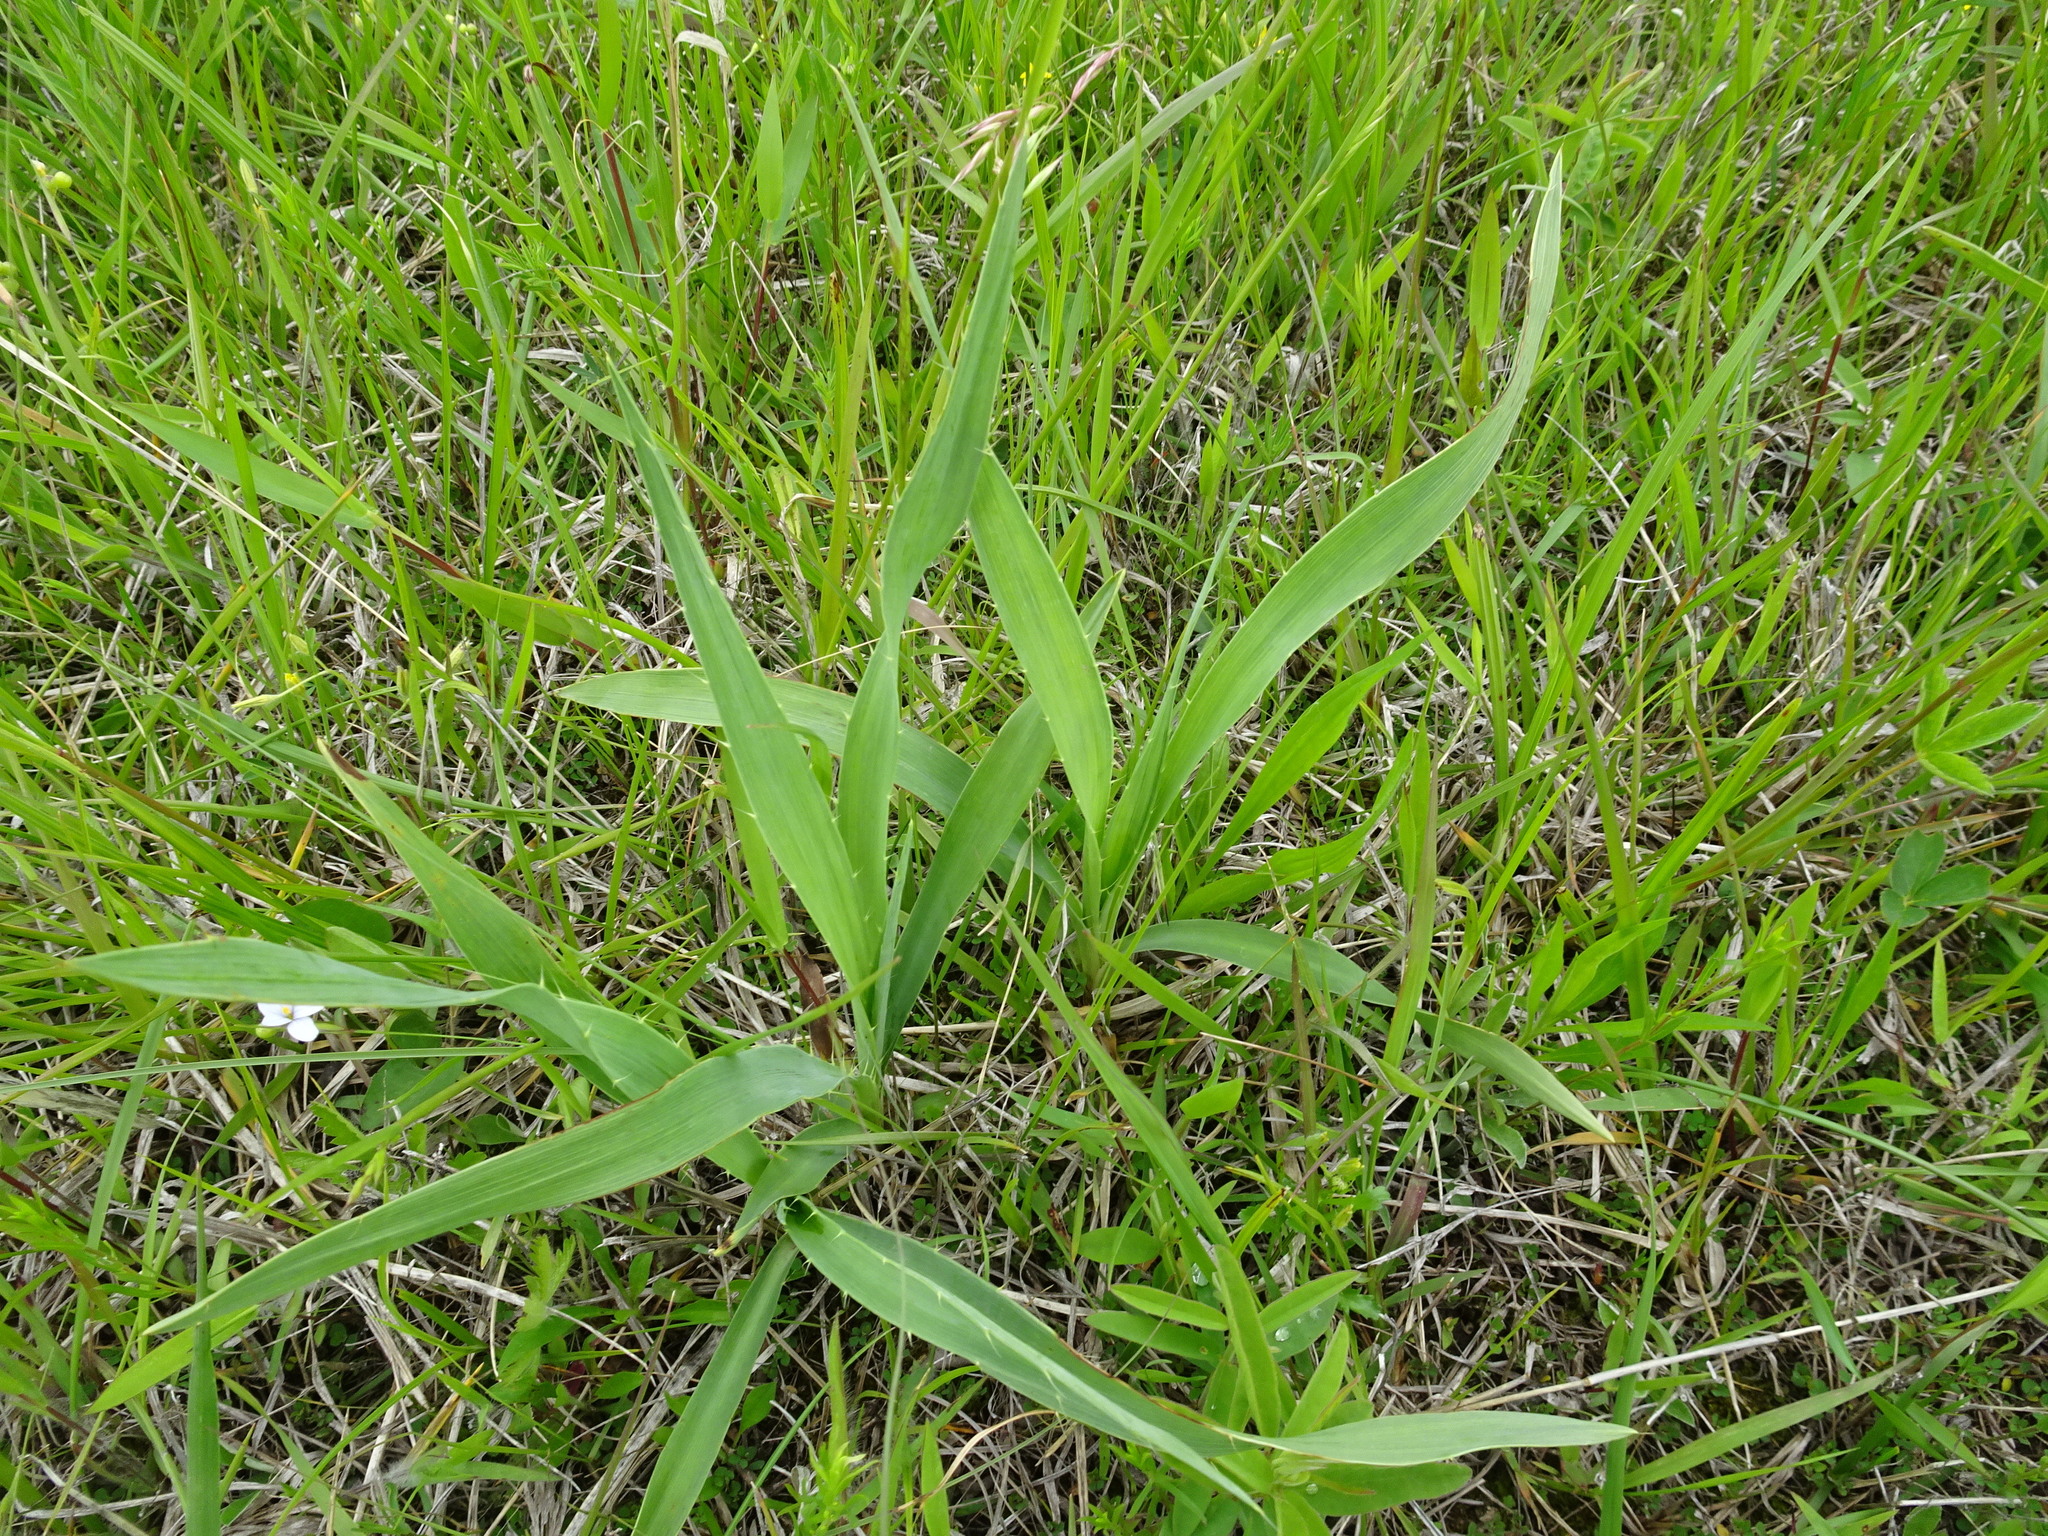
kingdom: Plantae
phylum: Tracheophyta
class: Magnoliopsida
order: Apiales
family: Apiaceae
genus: Eryngium
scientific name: Eryngium yuccifolium
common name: Button eryngo
